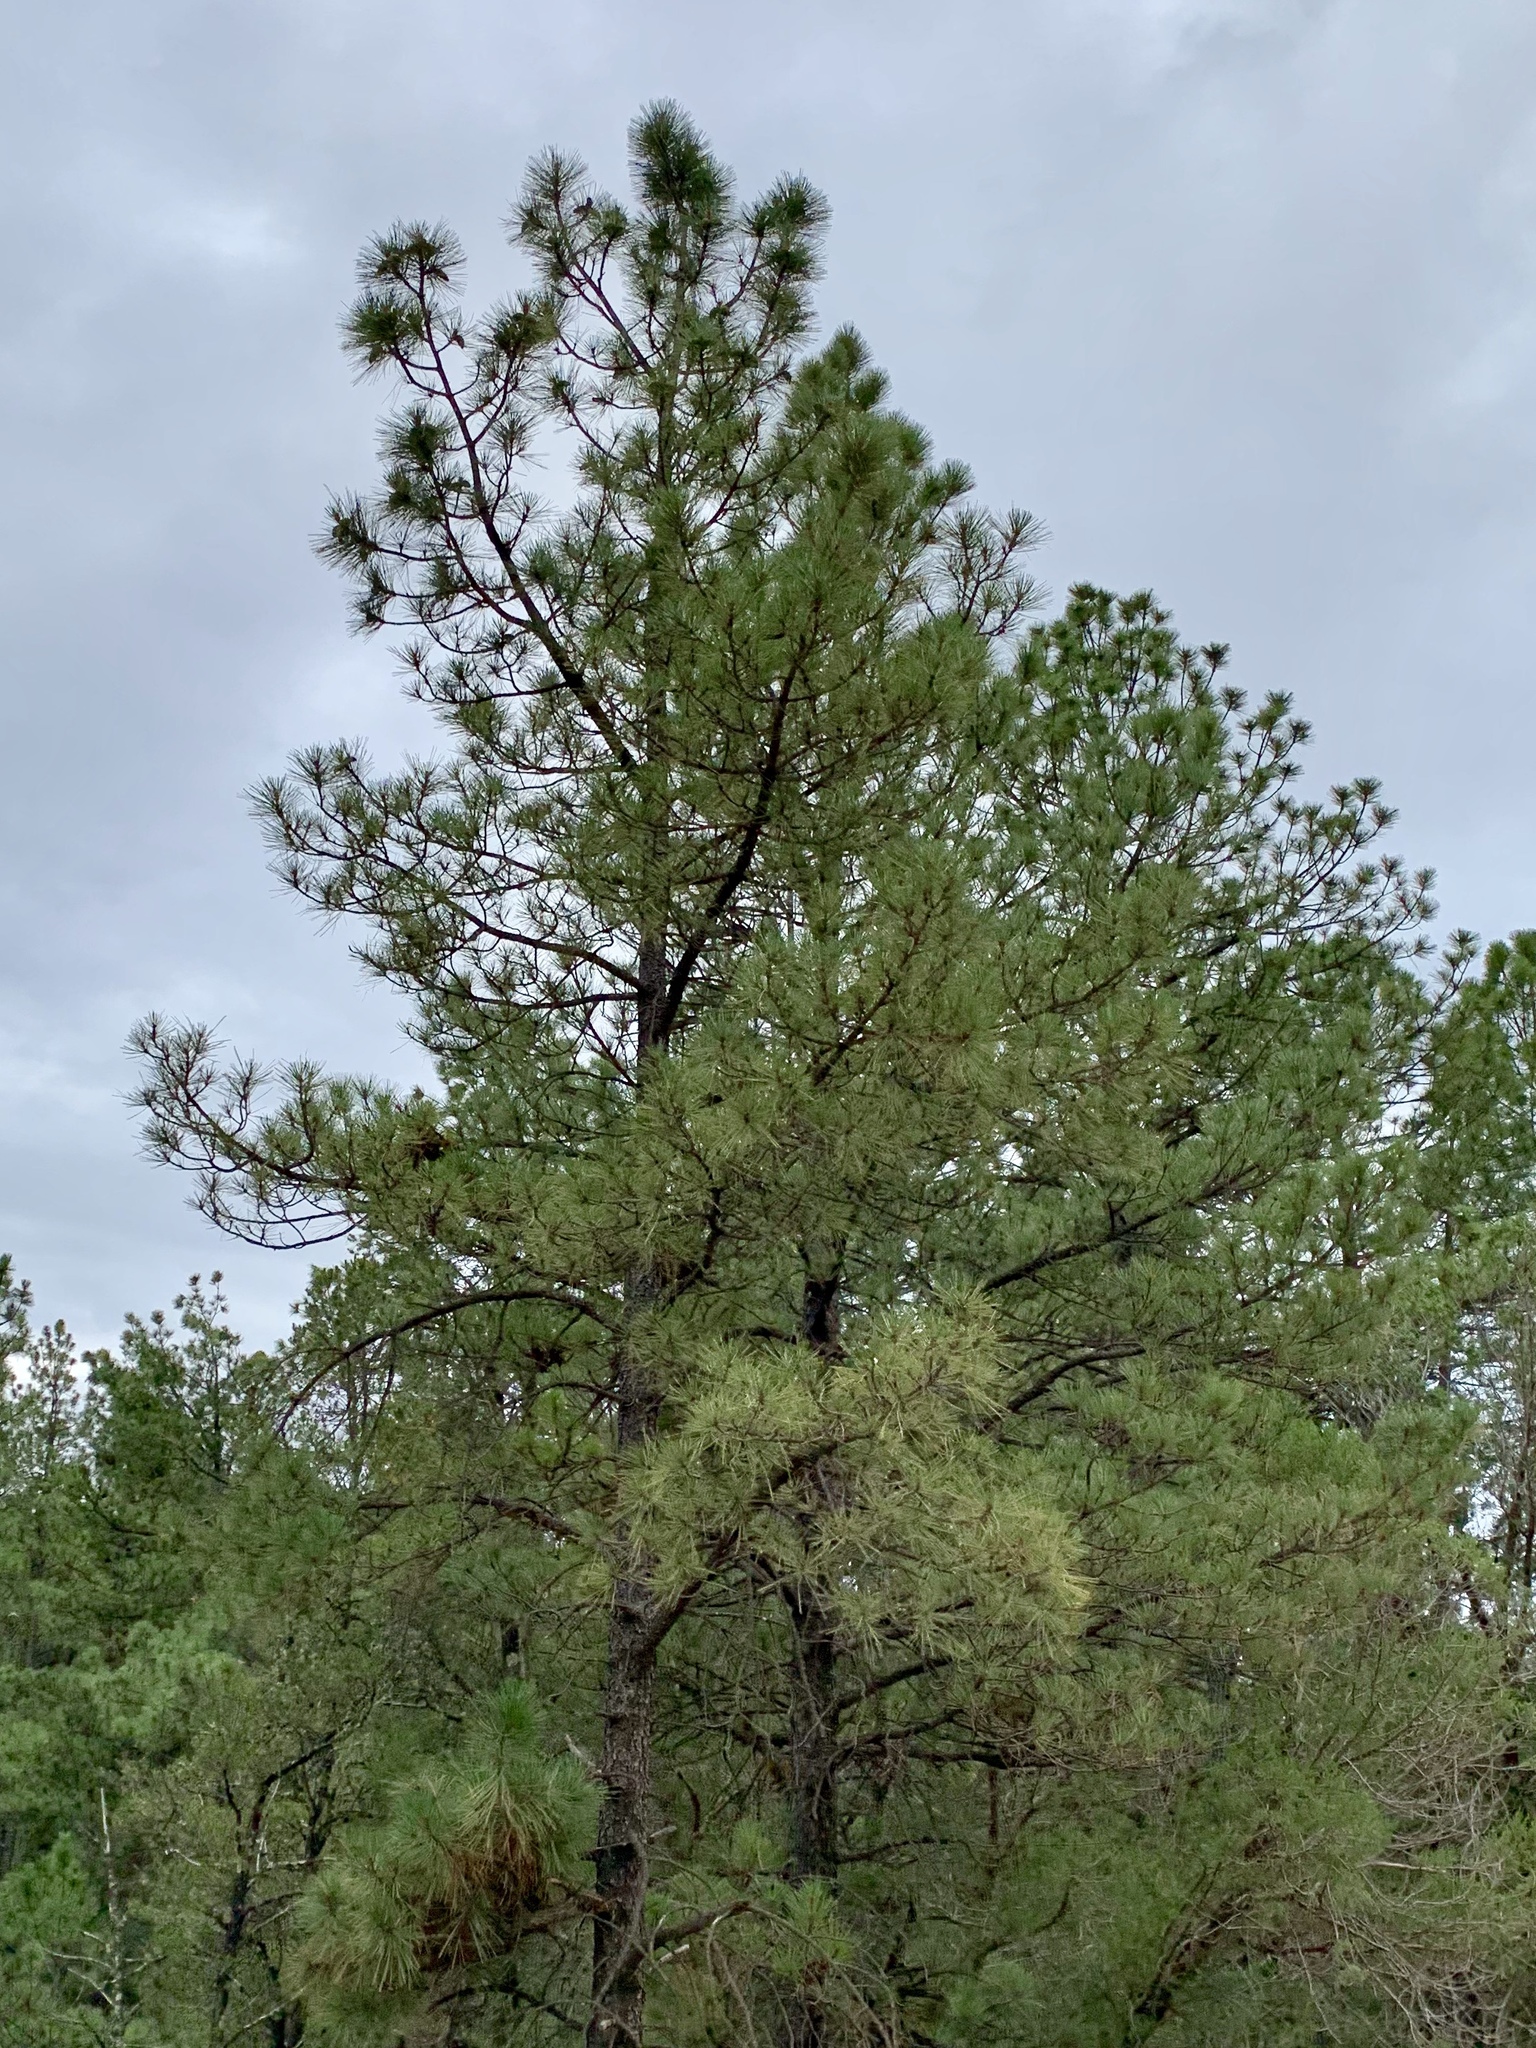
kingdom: Plantae
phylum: Tracheophyta
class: Pinopsida
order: Pinales
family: Pinaceae
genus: Pinus
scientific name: Pinus ponderosa
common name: Western yellow-pine
